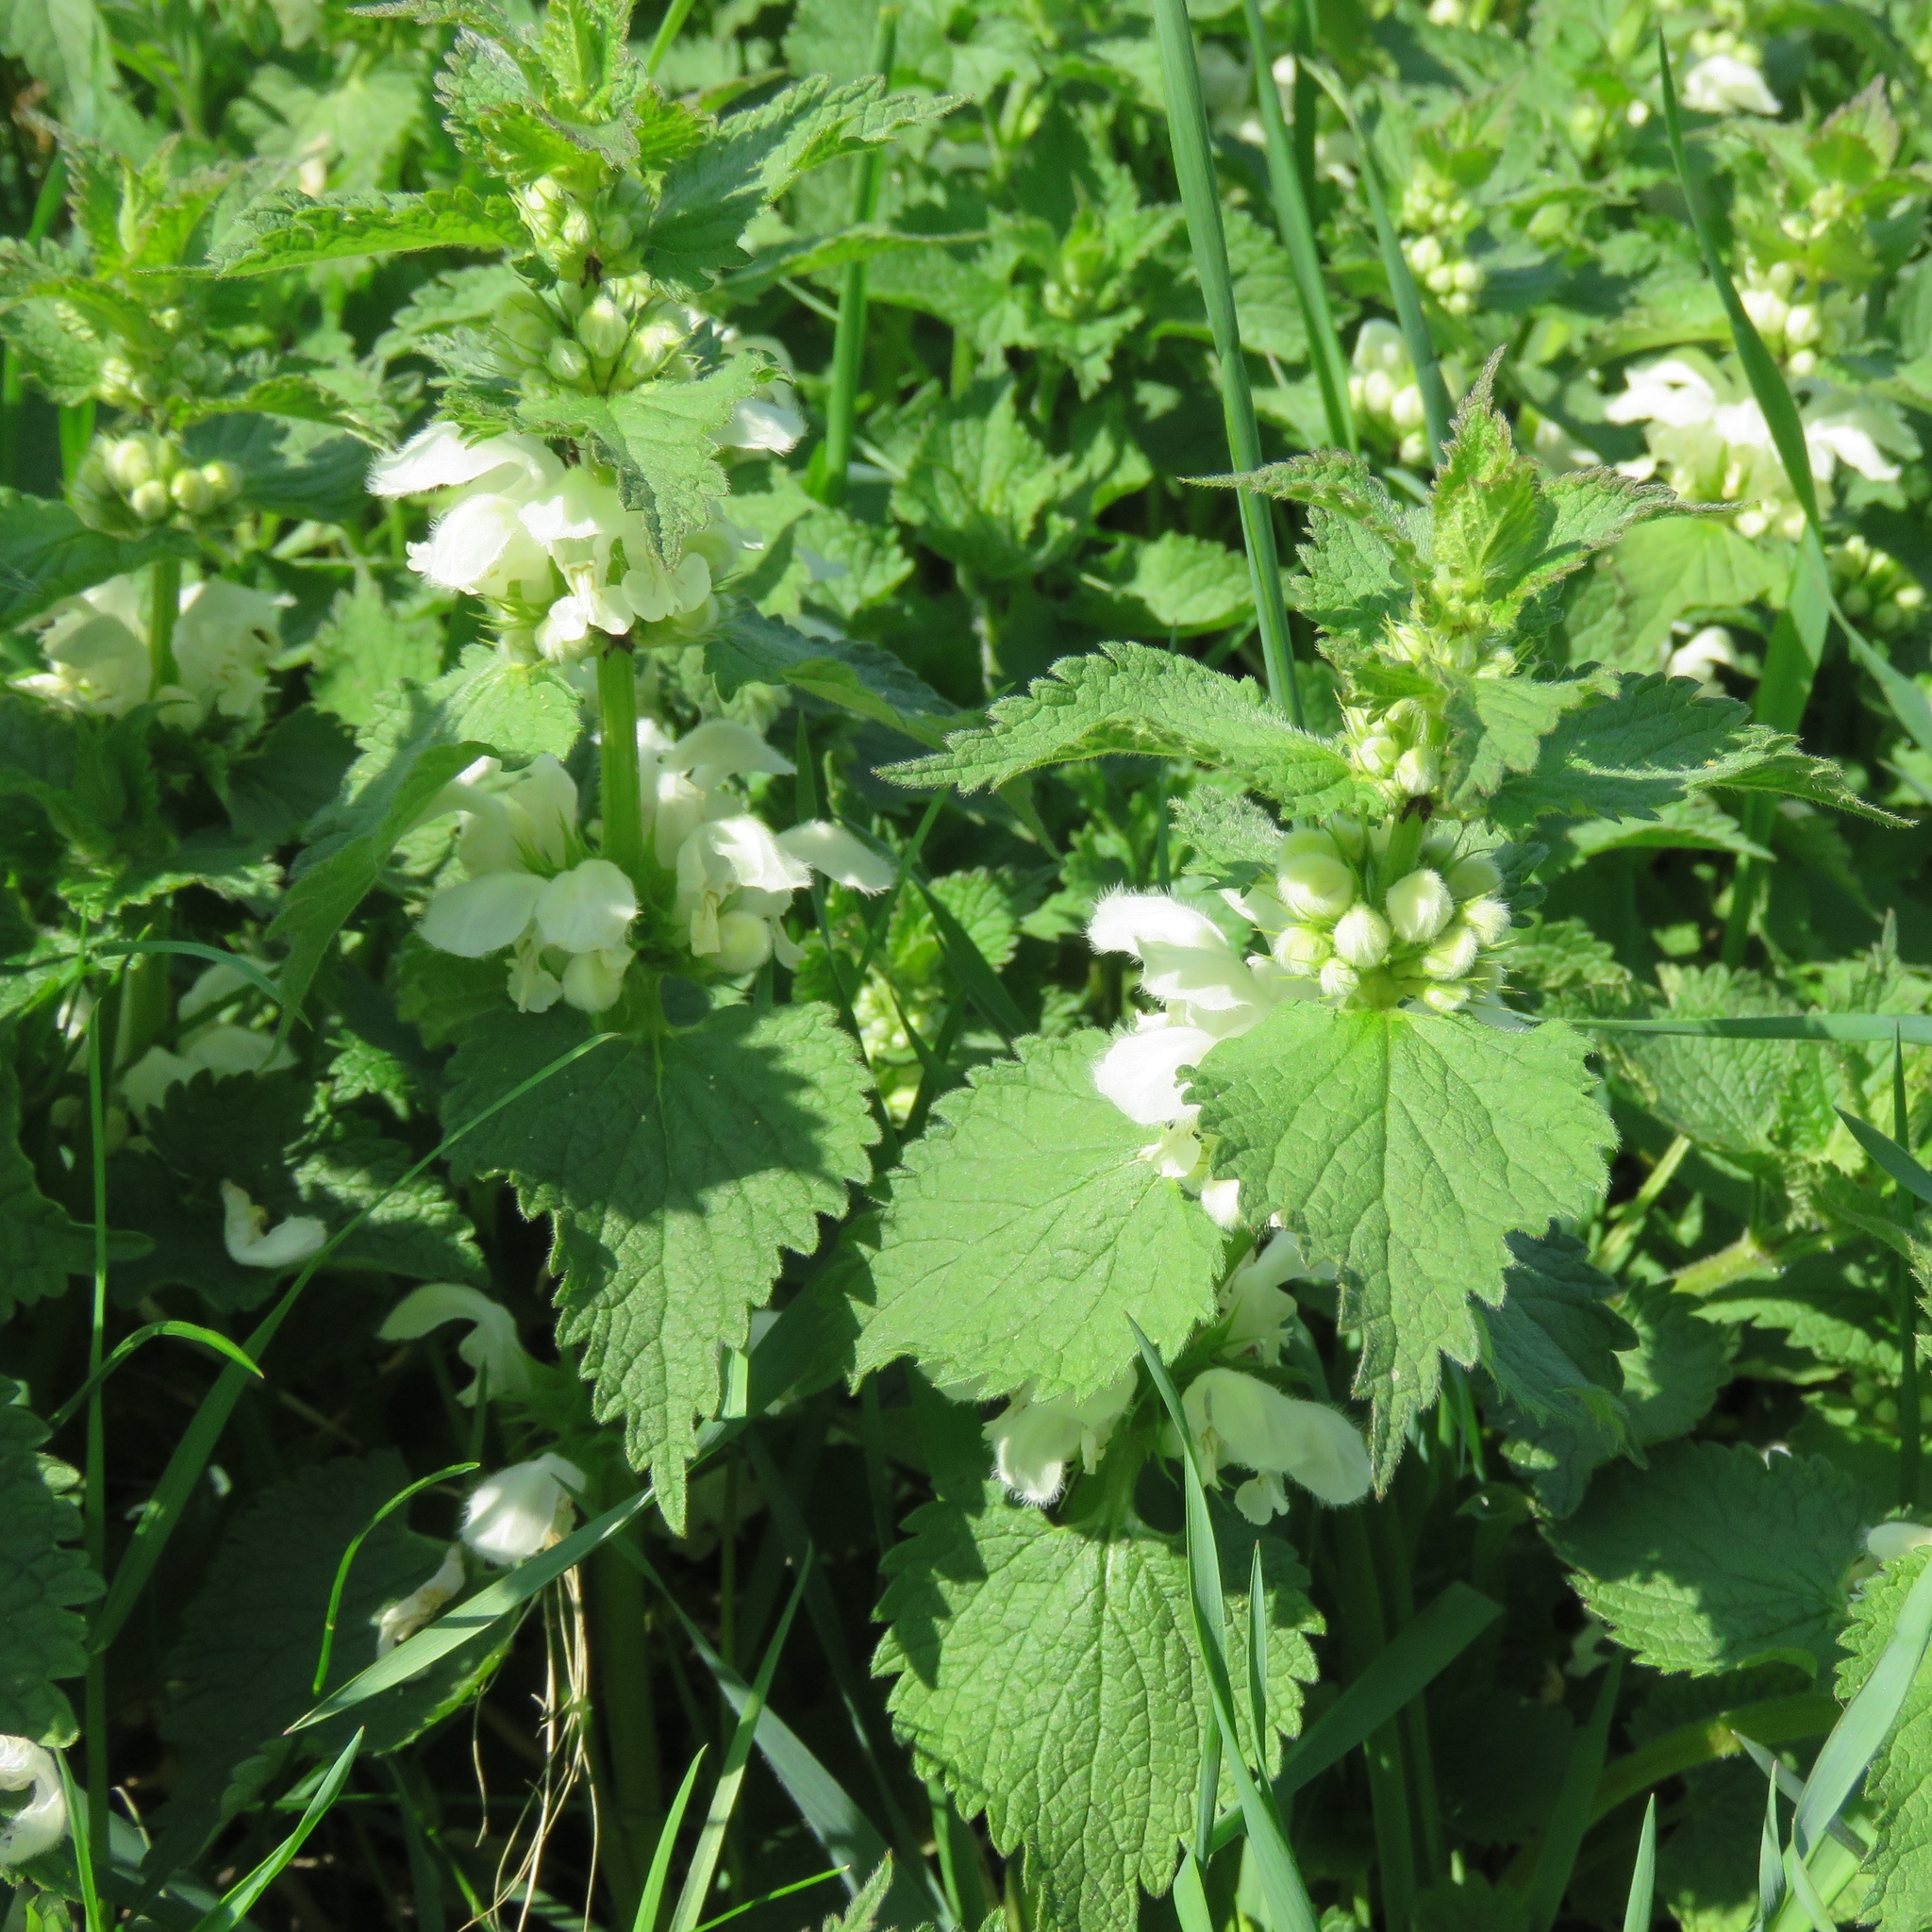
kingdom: Plantae
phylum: Tracheophyta
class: Magnoliopsida
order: Lamiales
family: Lamiaceae
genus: Lamium
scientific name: Lamium album
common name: White dead-nettle
